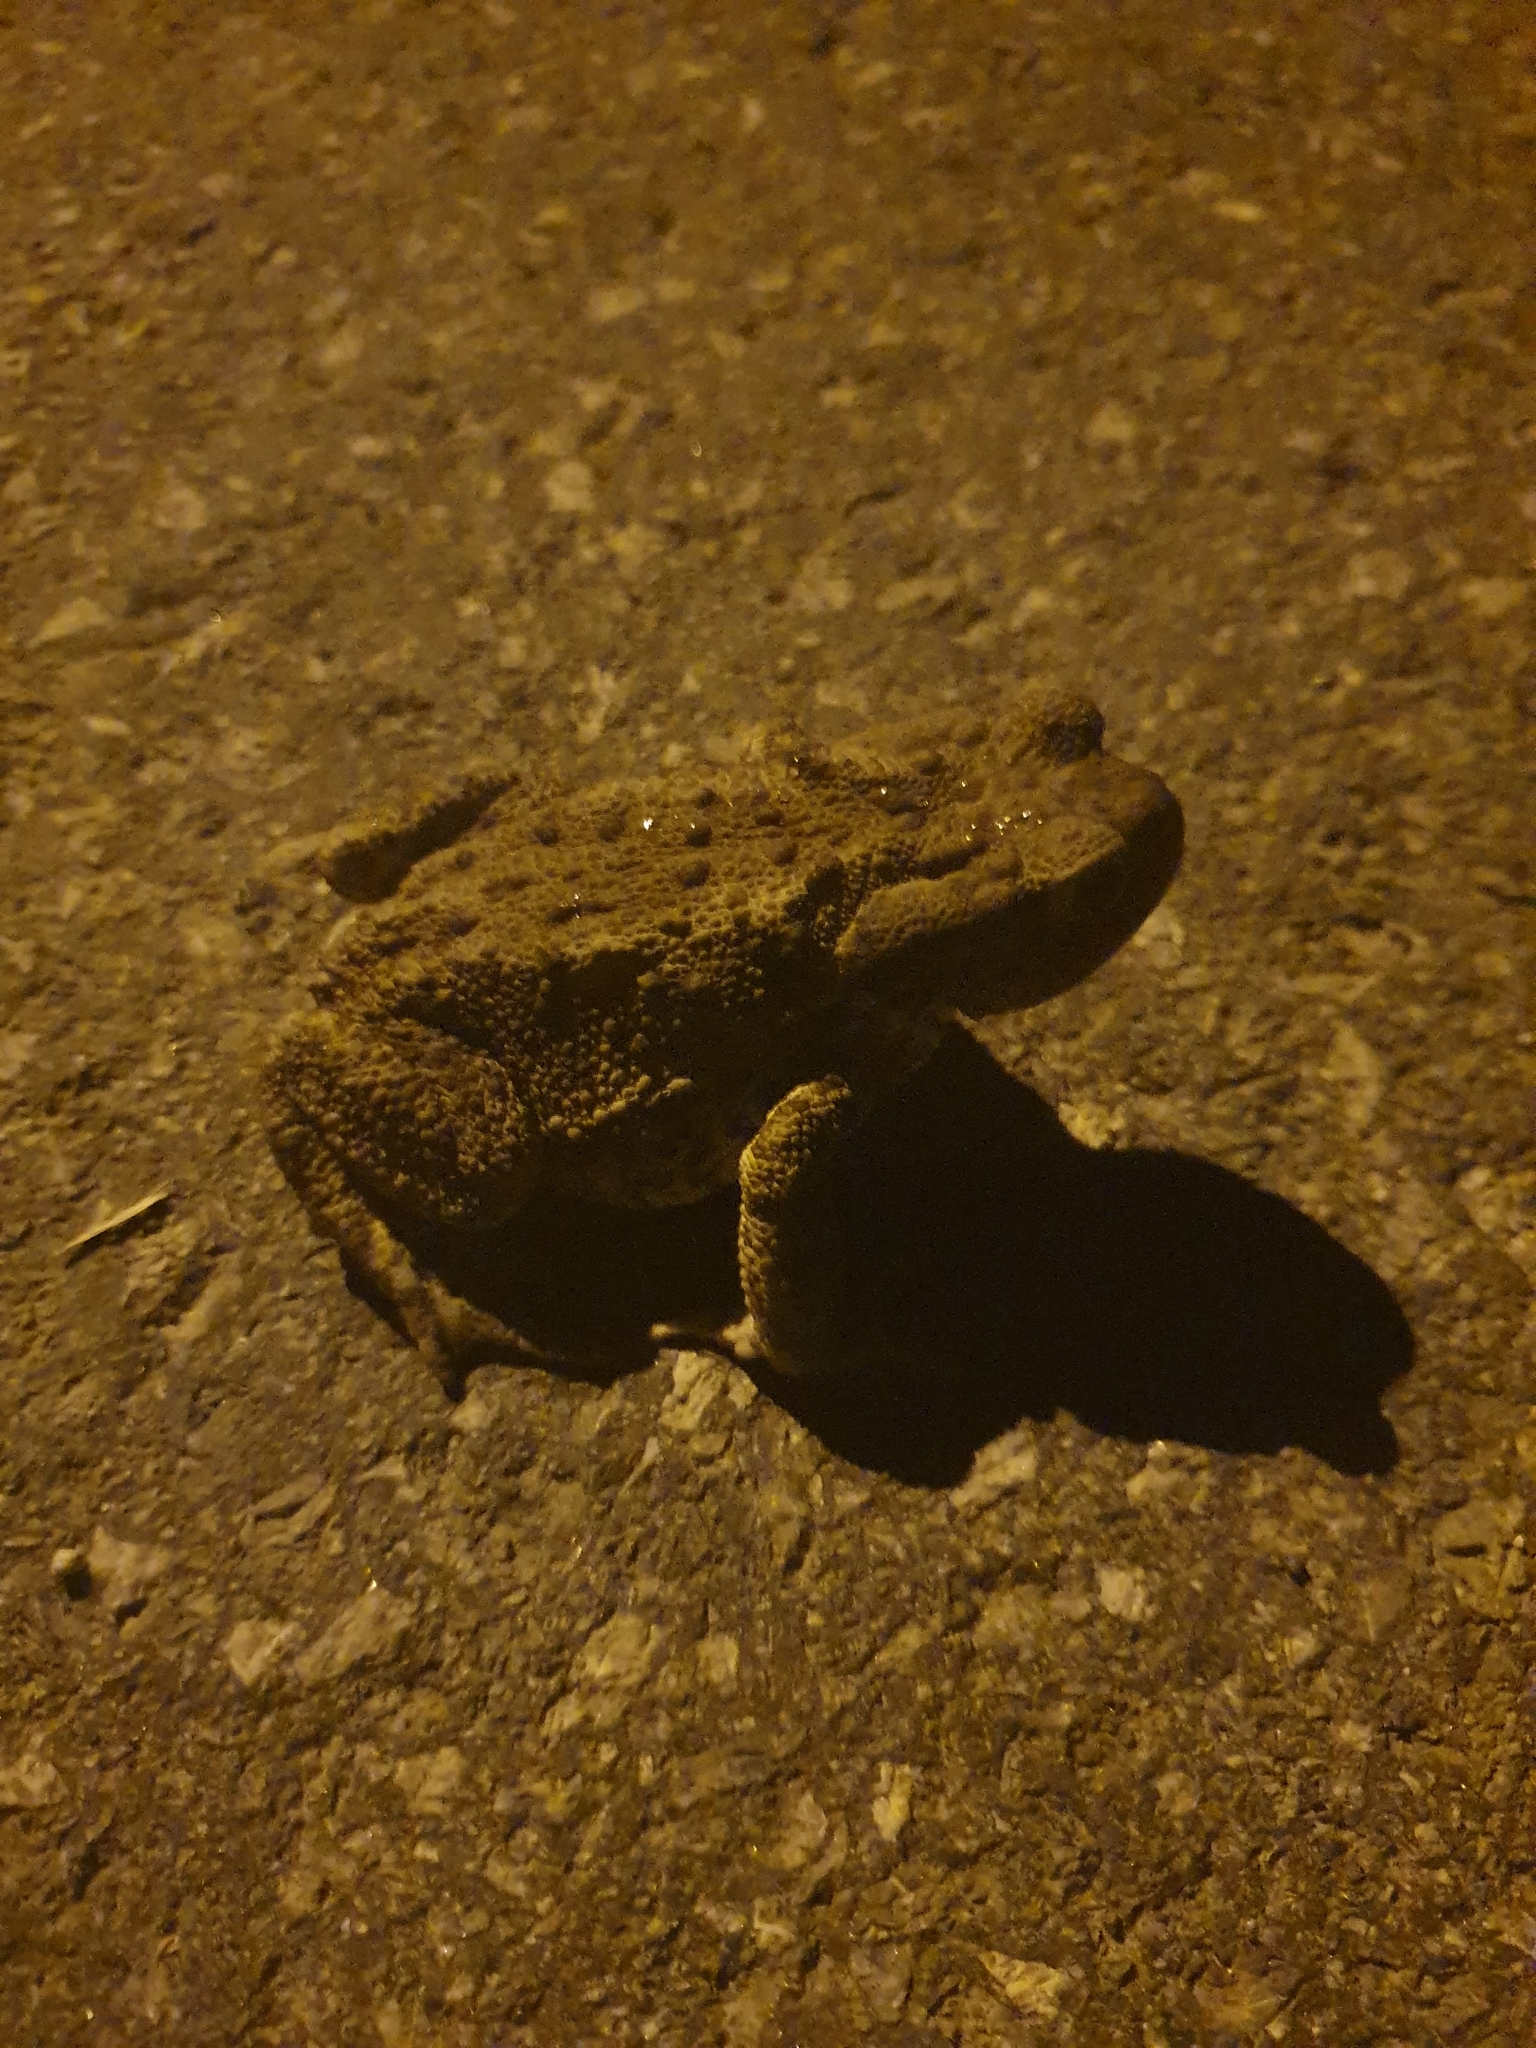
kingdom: Animalia
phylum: Chordata
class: Amphibia
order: Anura
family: Bufonidae
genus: Bufo
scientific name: Bufo bufo
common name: Common toad
